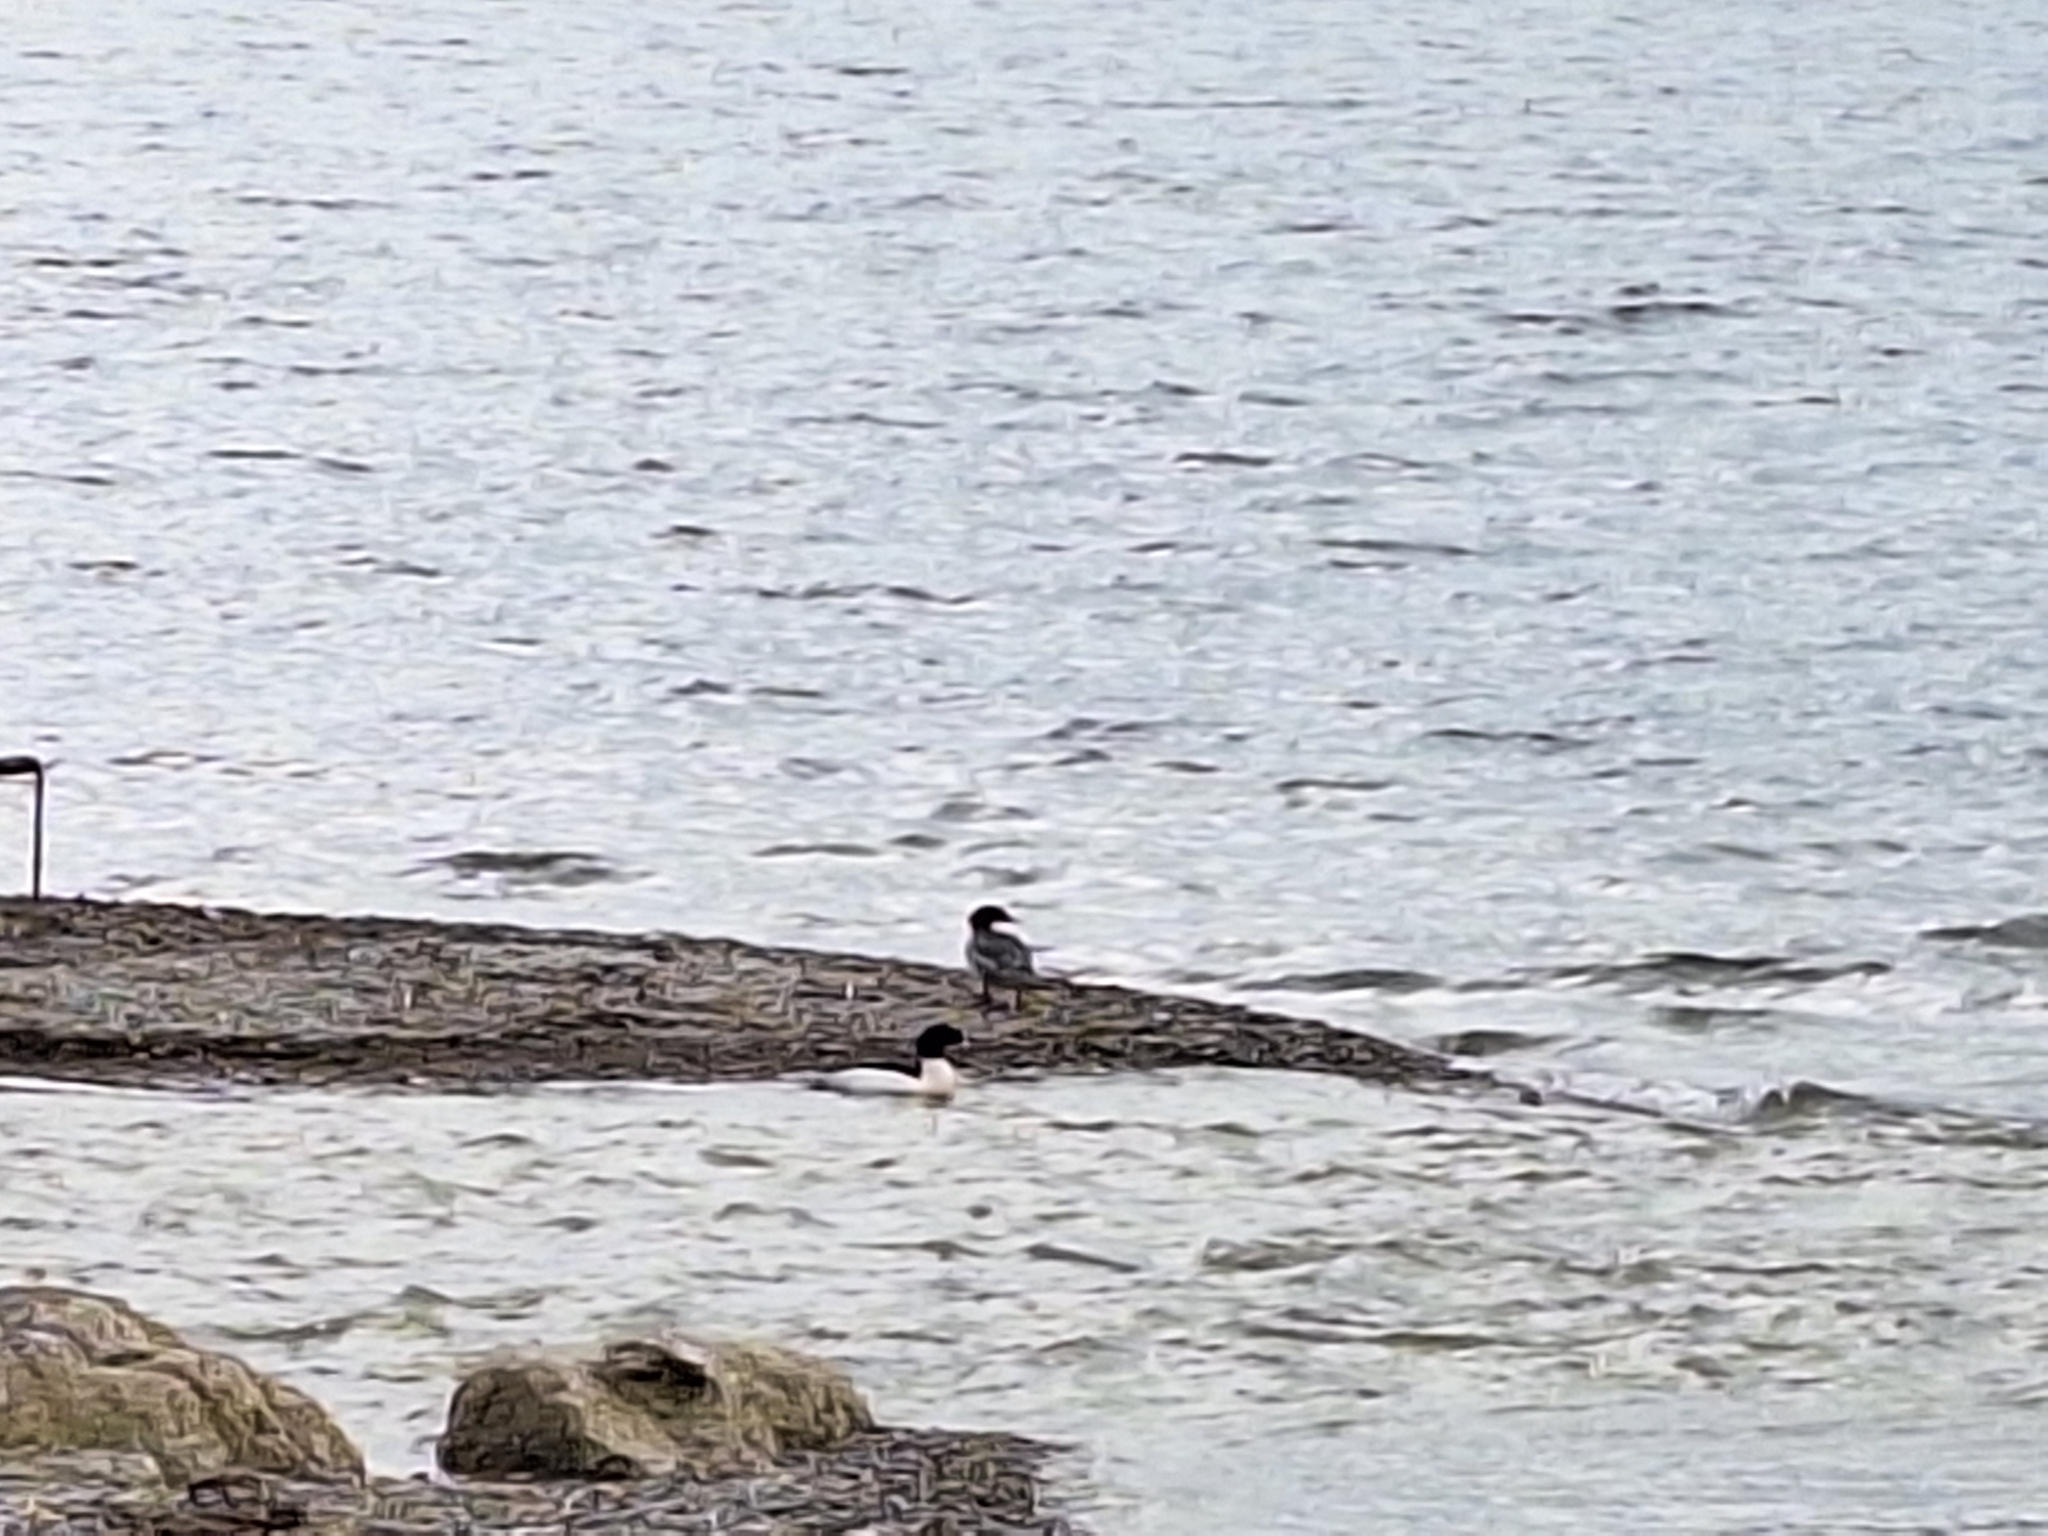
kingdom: Animalia
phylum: Chordata
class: Aves
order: Anseriformes
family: Anatidae
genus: Mergus
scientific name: Mergus merganser
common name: Common merganser
